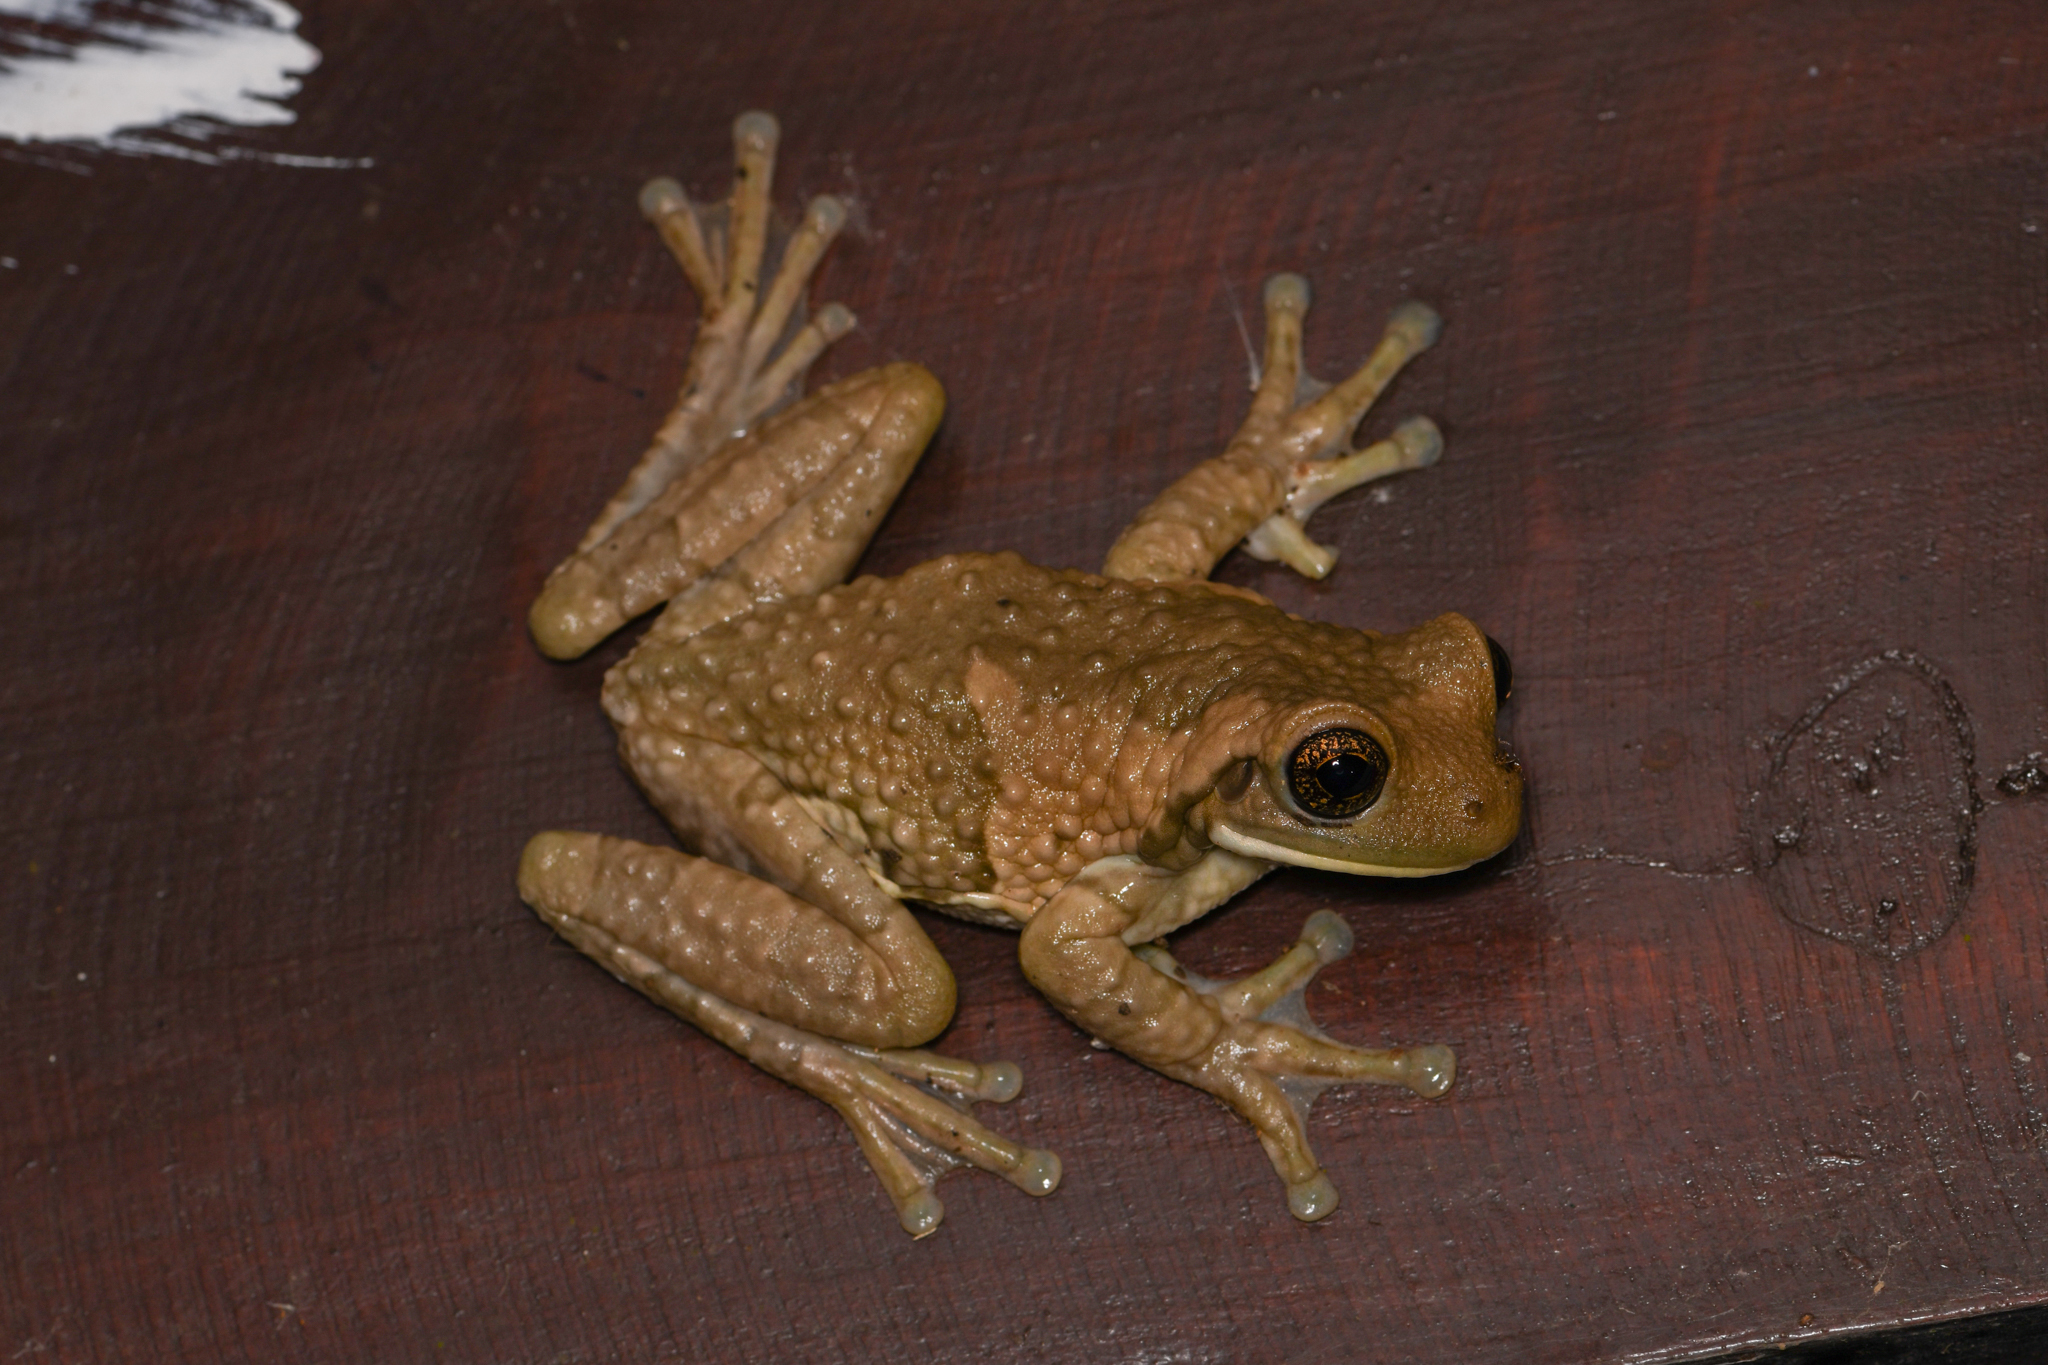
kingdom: Animalia
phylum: Chordata
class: Amphibia
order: Anura
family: Hylidae
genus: Trachycephalus
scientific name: Trachycephalus vermiculatus
